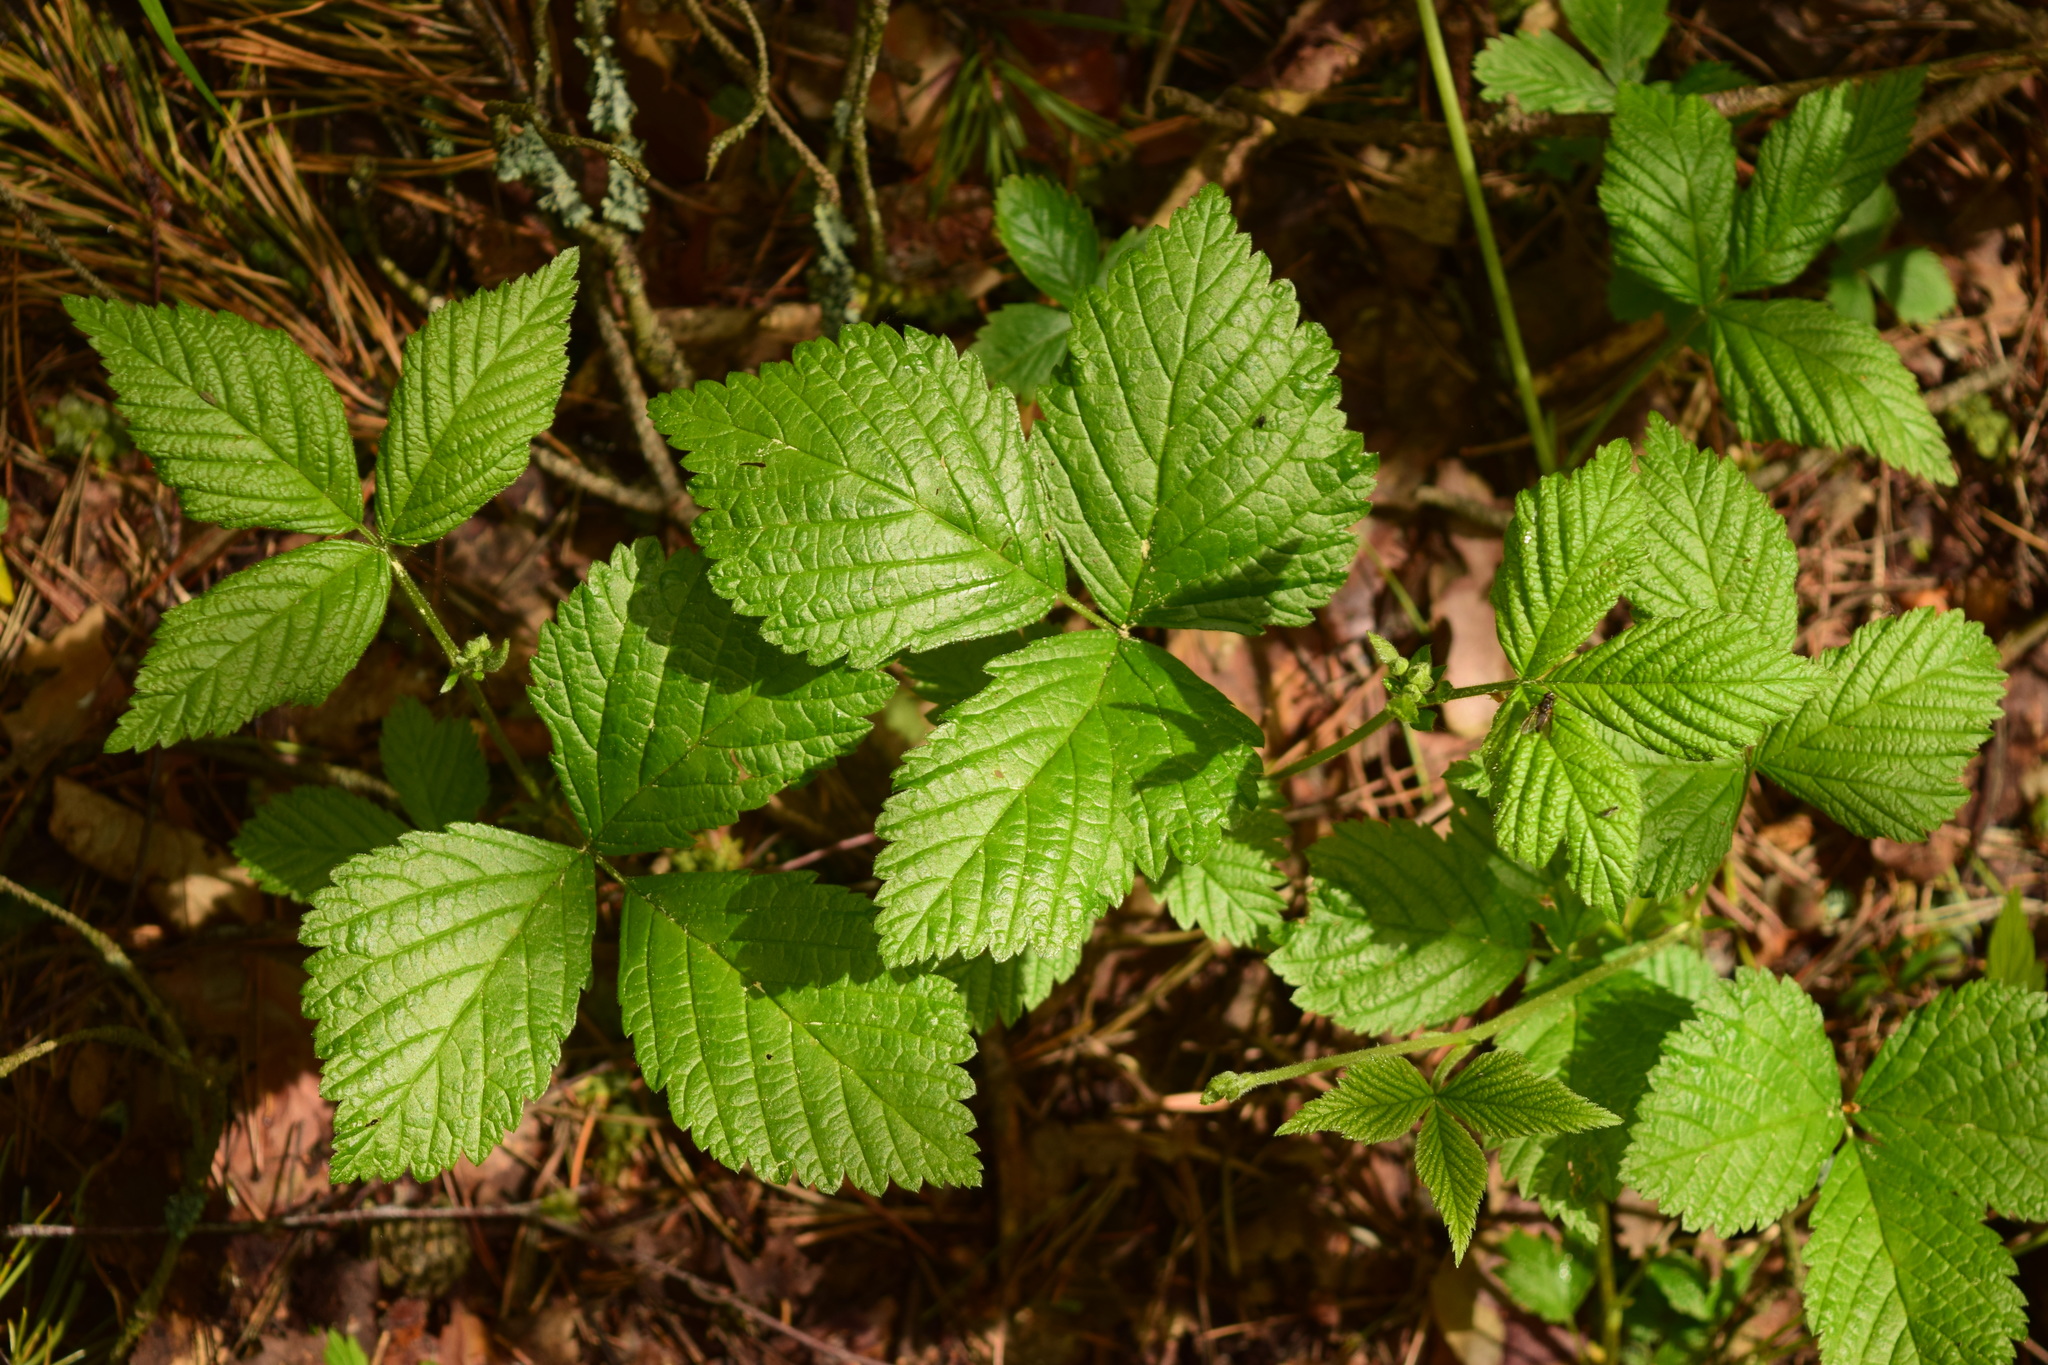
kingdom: Plantae
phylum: Tracheophyta
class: Magnoliopsida
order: Rosales
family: Rosaceae
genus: Rubus
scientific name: Rubus saxatilis
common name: Stone bramble
